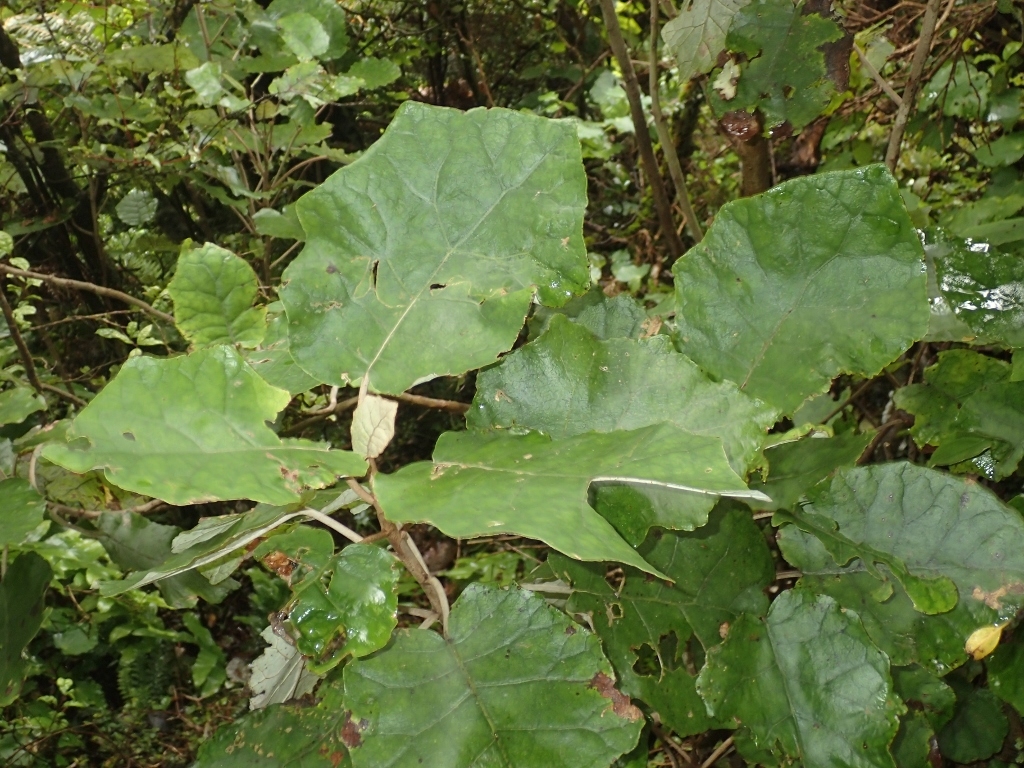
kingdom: Plantae
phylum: Tracheophyta
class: Magnoliopsida
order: Asterales
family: Asteraceae
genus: Brachyglottis
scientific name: Brachyglottis repanda
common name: Hedge ragwort
